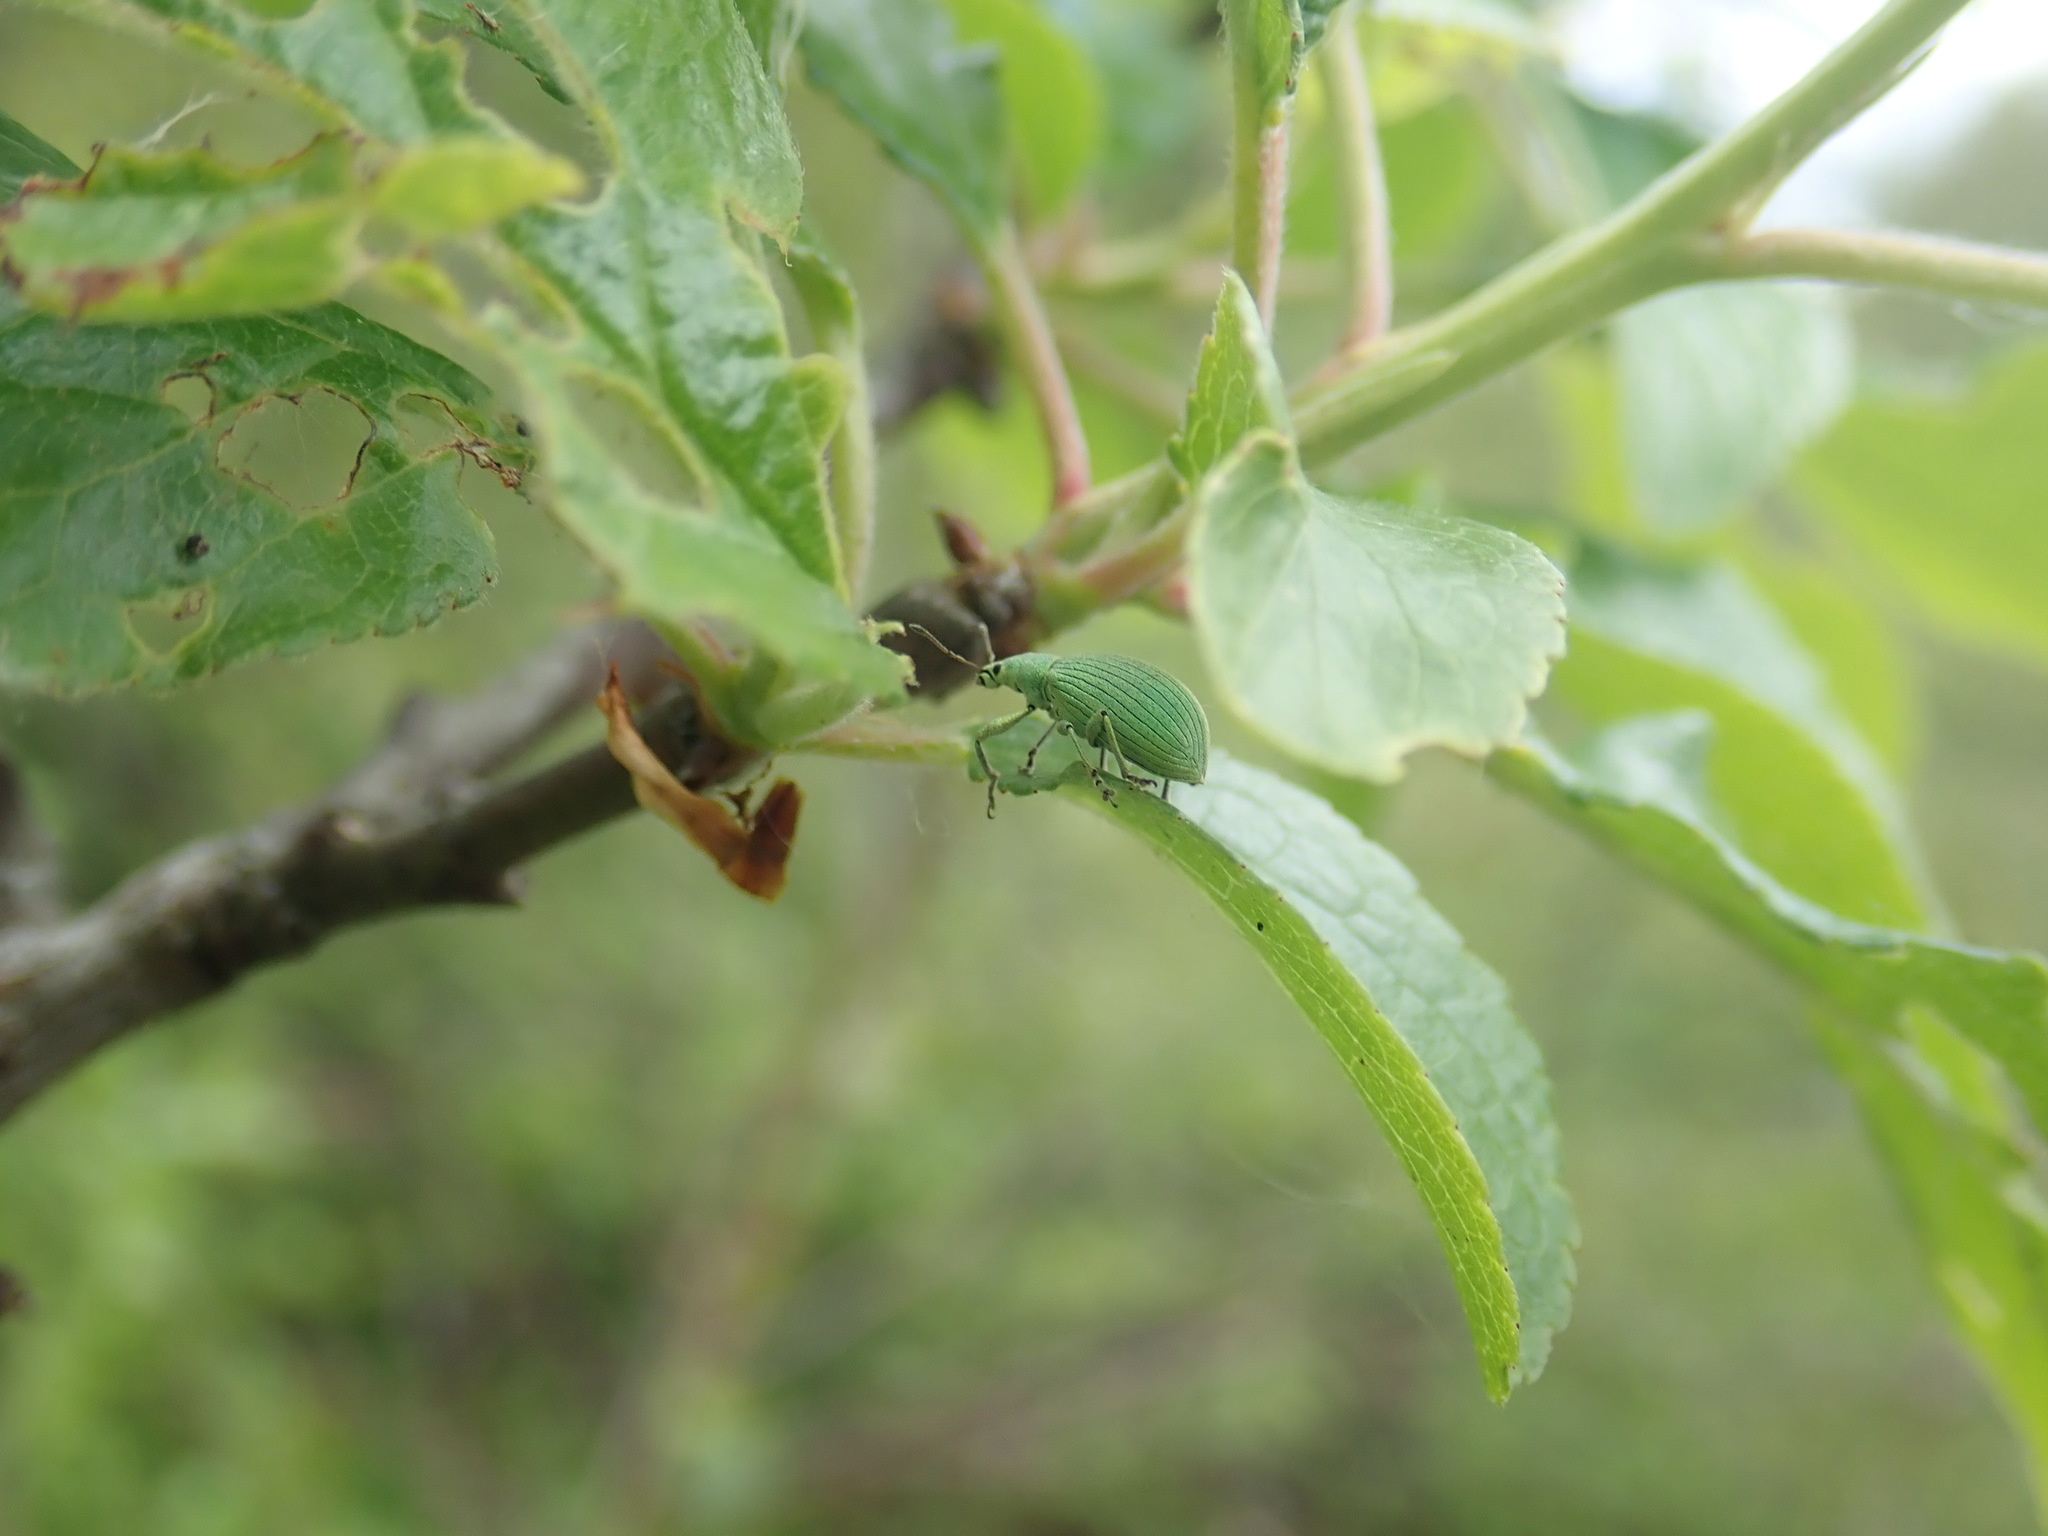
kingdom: Animalia
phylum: Arthropoda
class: Insecta
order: Coleoptera
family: Curculionidae
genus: Polydrusus
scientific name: Polydrusus planifrons
